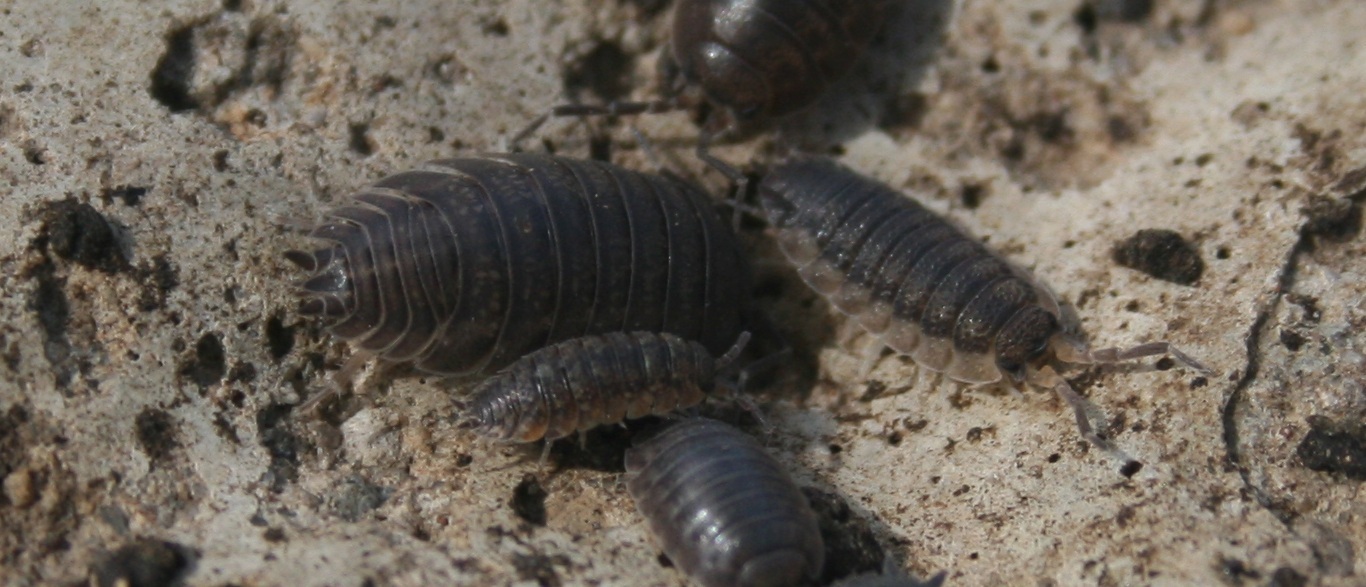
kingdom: Animalia
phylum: Arthropoda
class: Malacostraca
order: Isopoda
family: Porcellionidae
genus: Porcellio
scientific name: Porcellio scaber
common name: Common rough woodlouse
